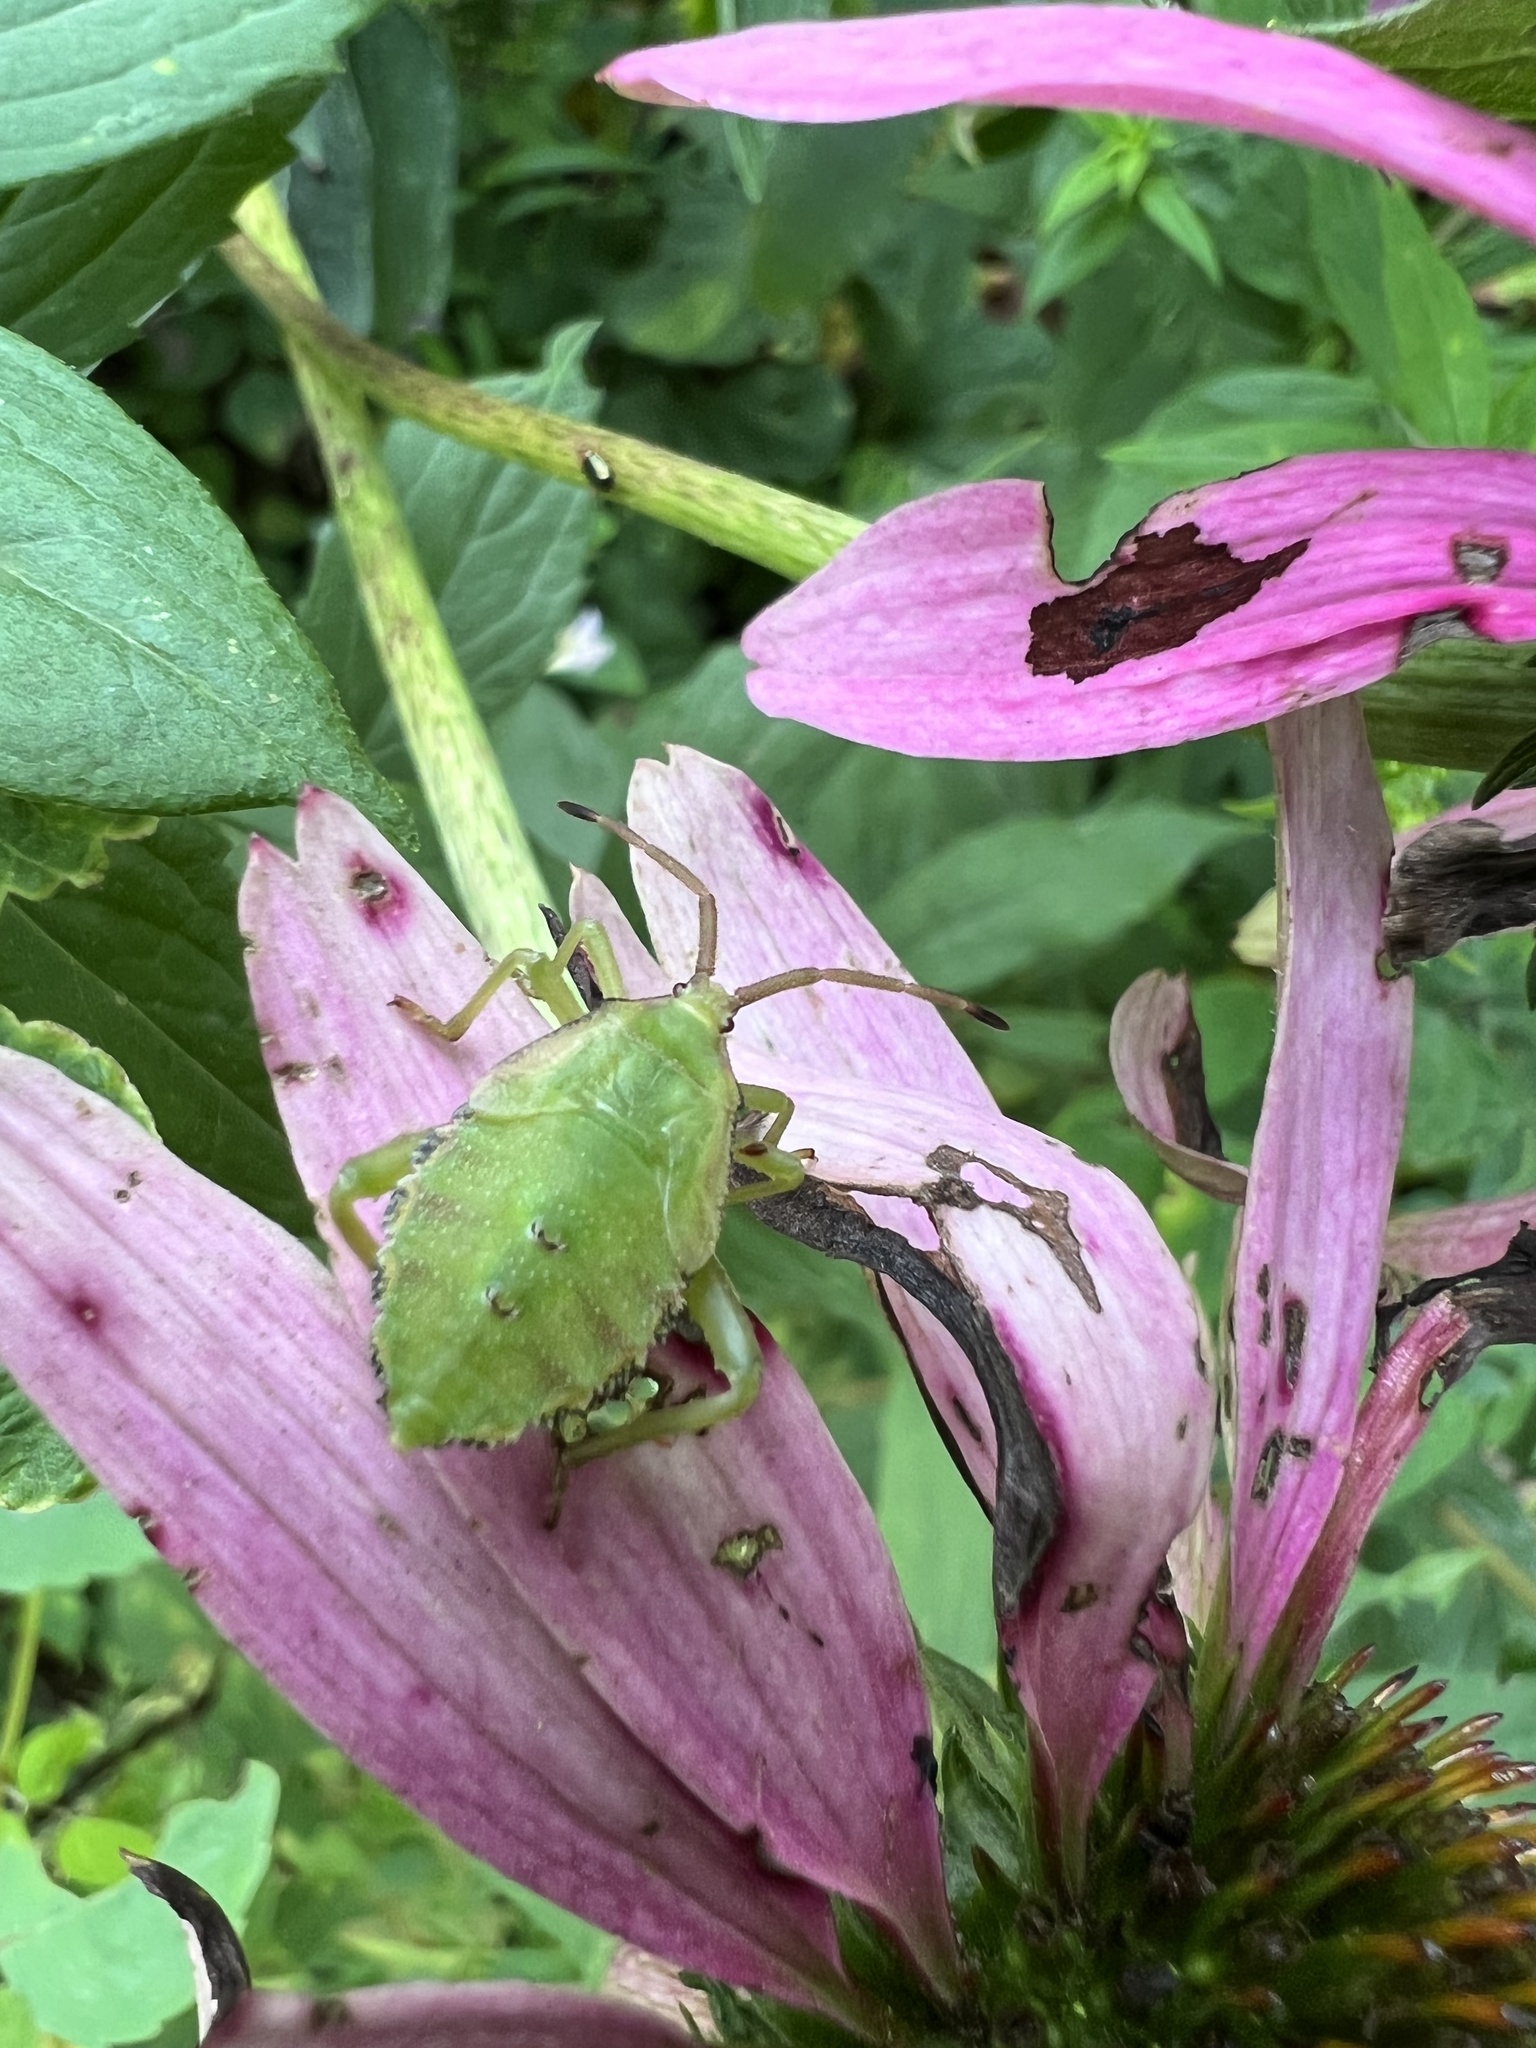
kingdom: Animalia
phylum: Arthropoda
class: Insecta
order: Hemiptera
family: Coreidae
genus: Piezogaster
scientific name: Piezogaster calcarator
